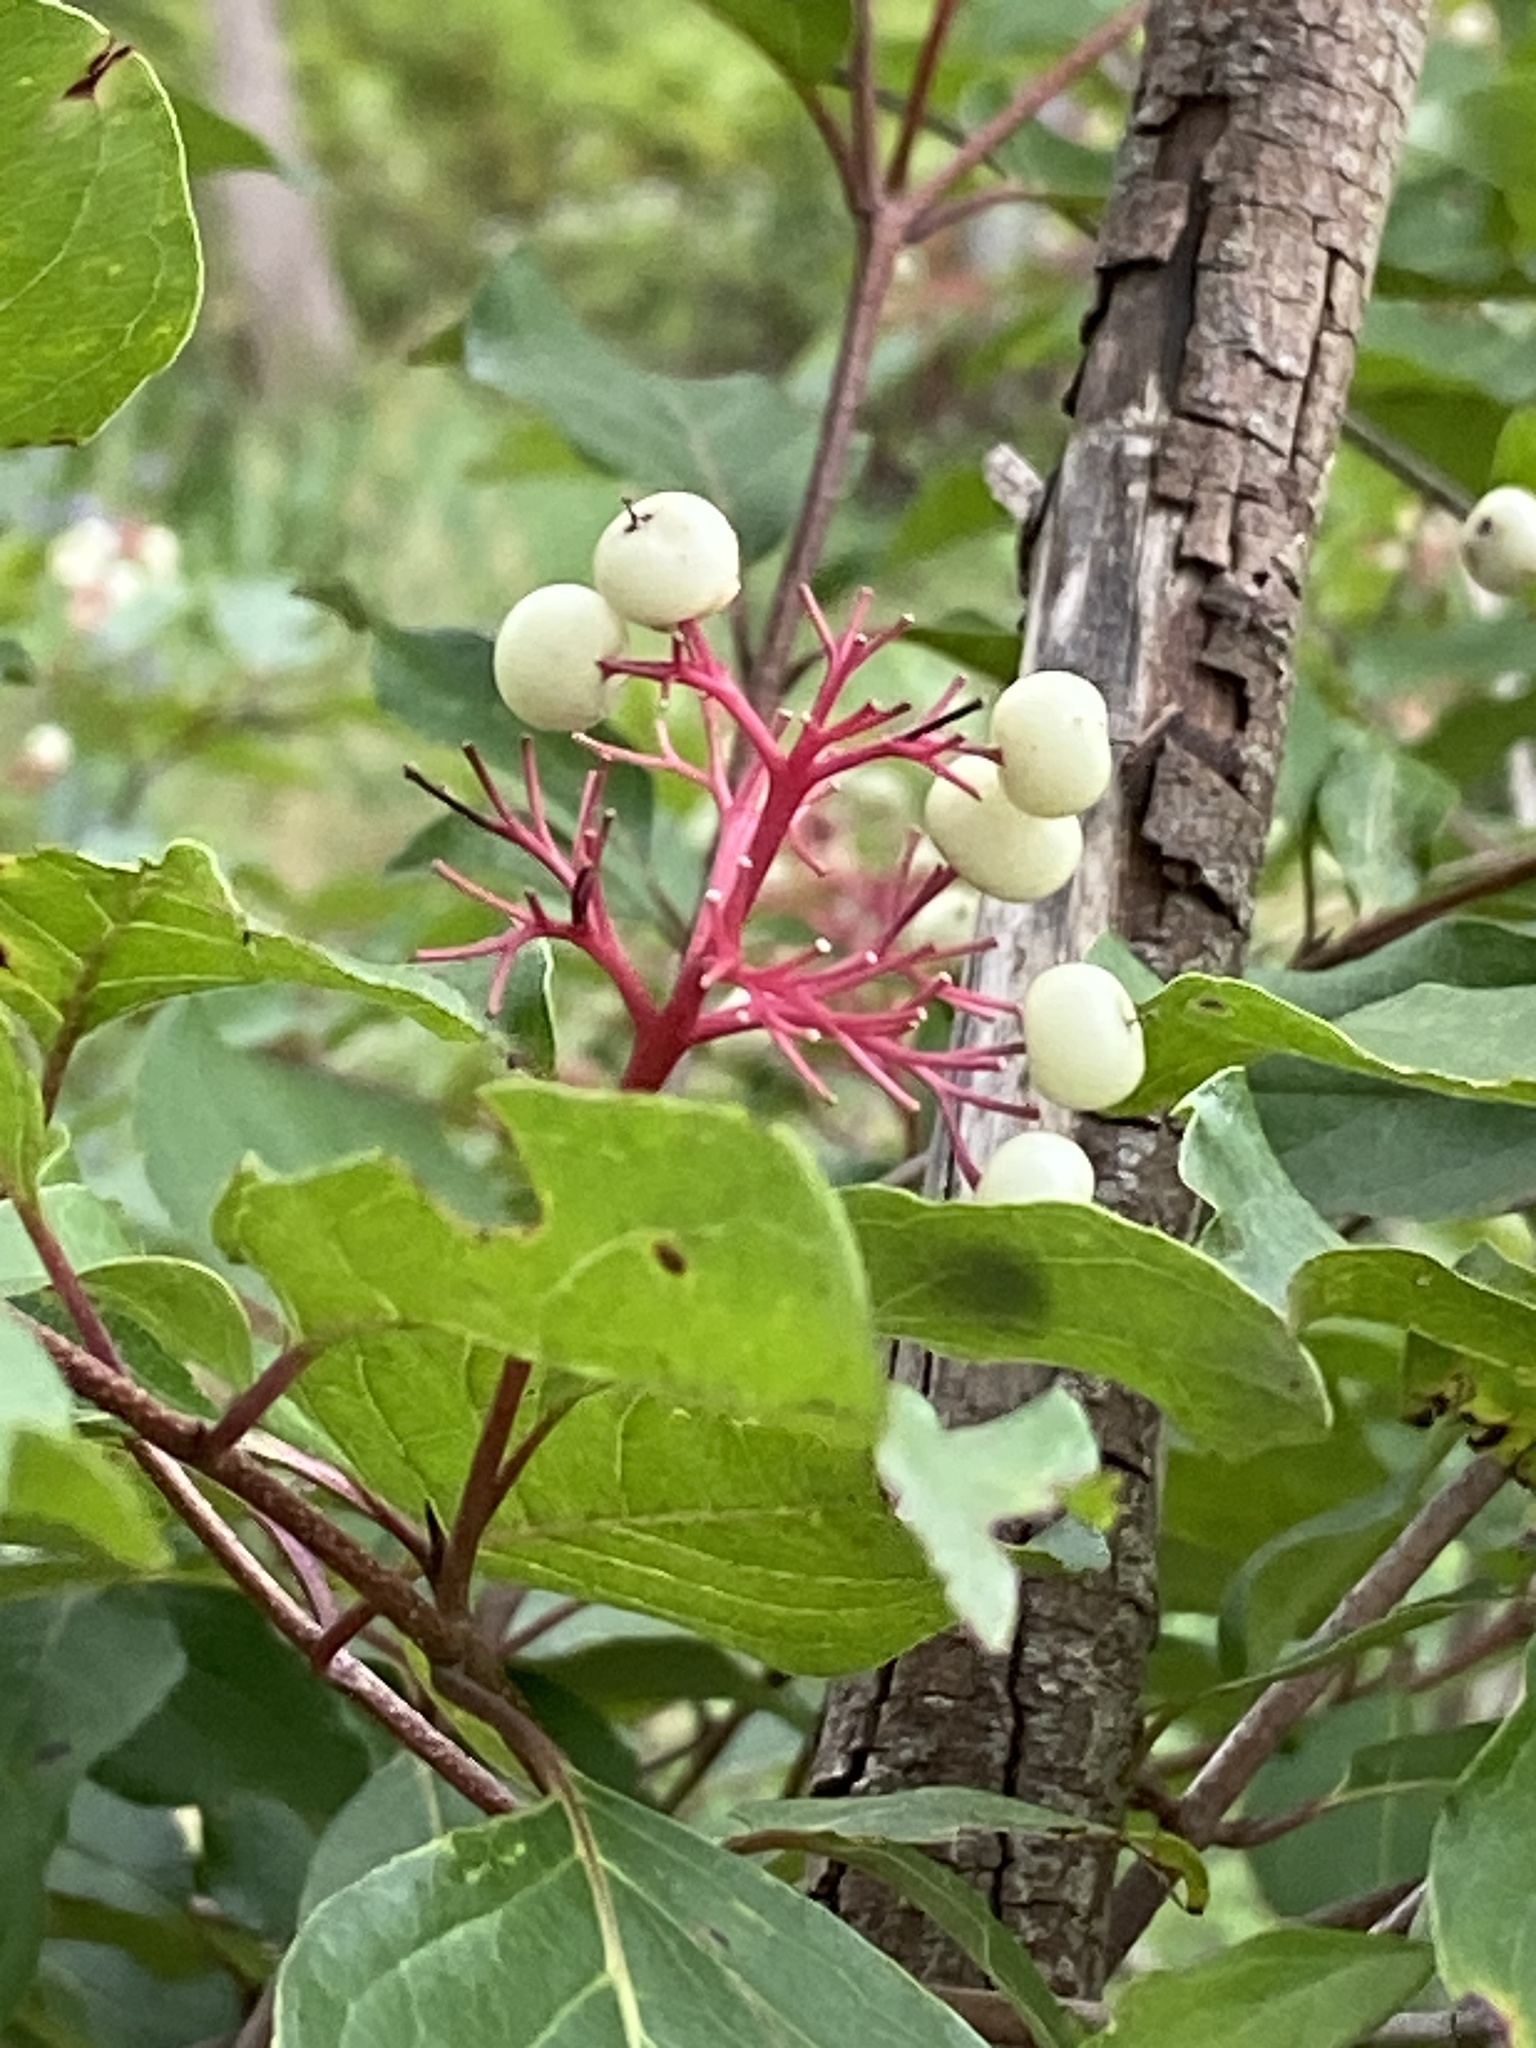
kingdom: Plantae
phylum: Tracheophyta
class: Magnoliopsida
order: Cornales
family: Cornaceae
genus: Cornus
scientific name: Cornus racemosa
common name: Panicled dogwood
